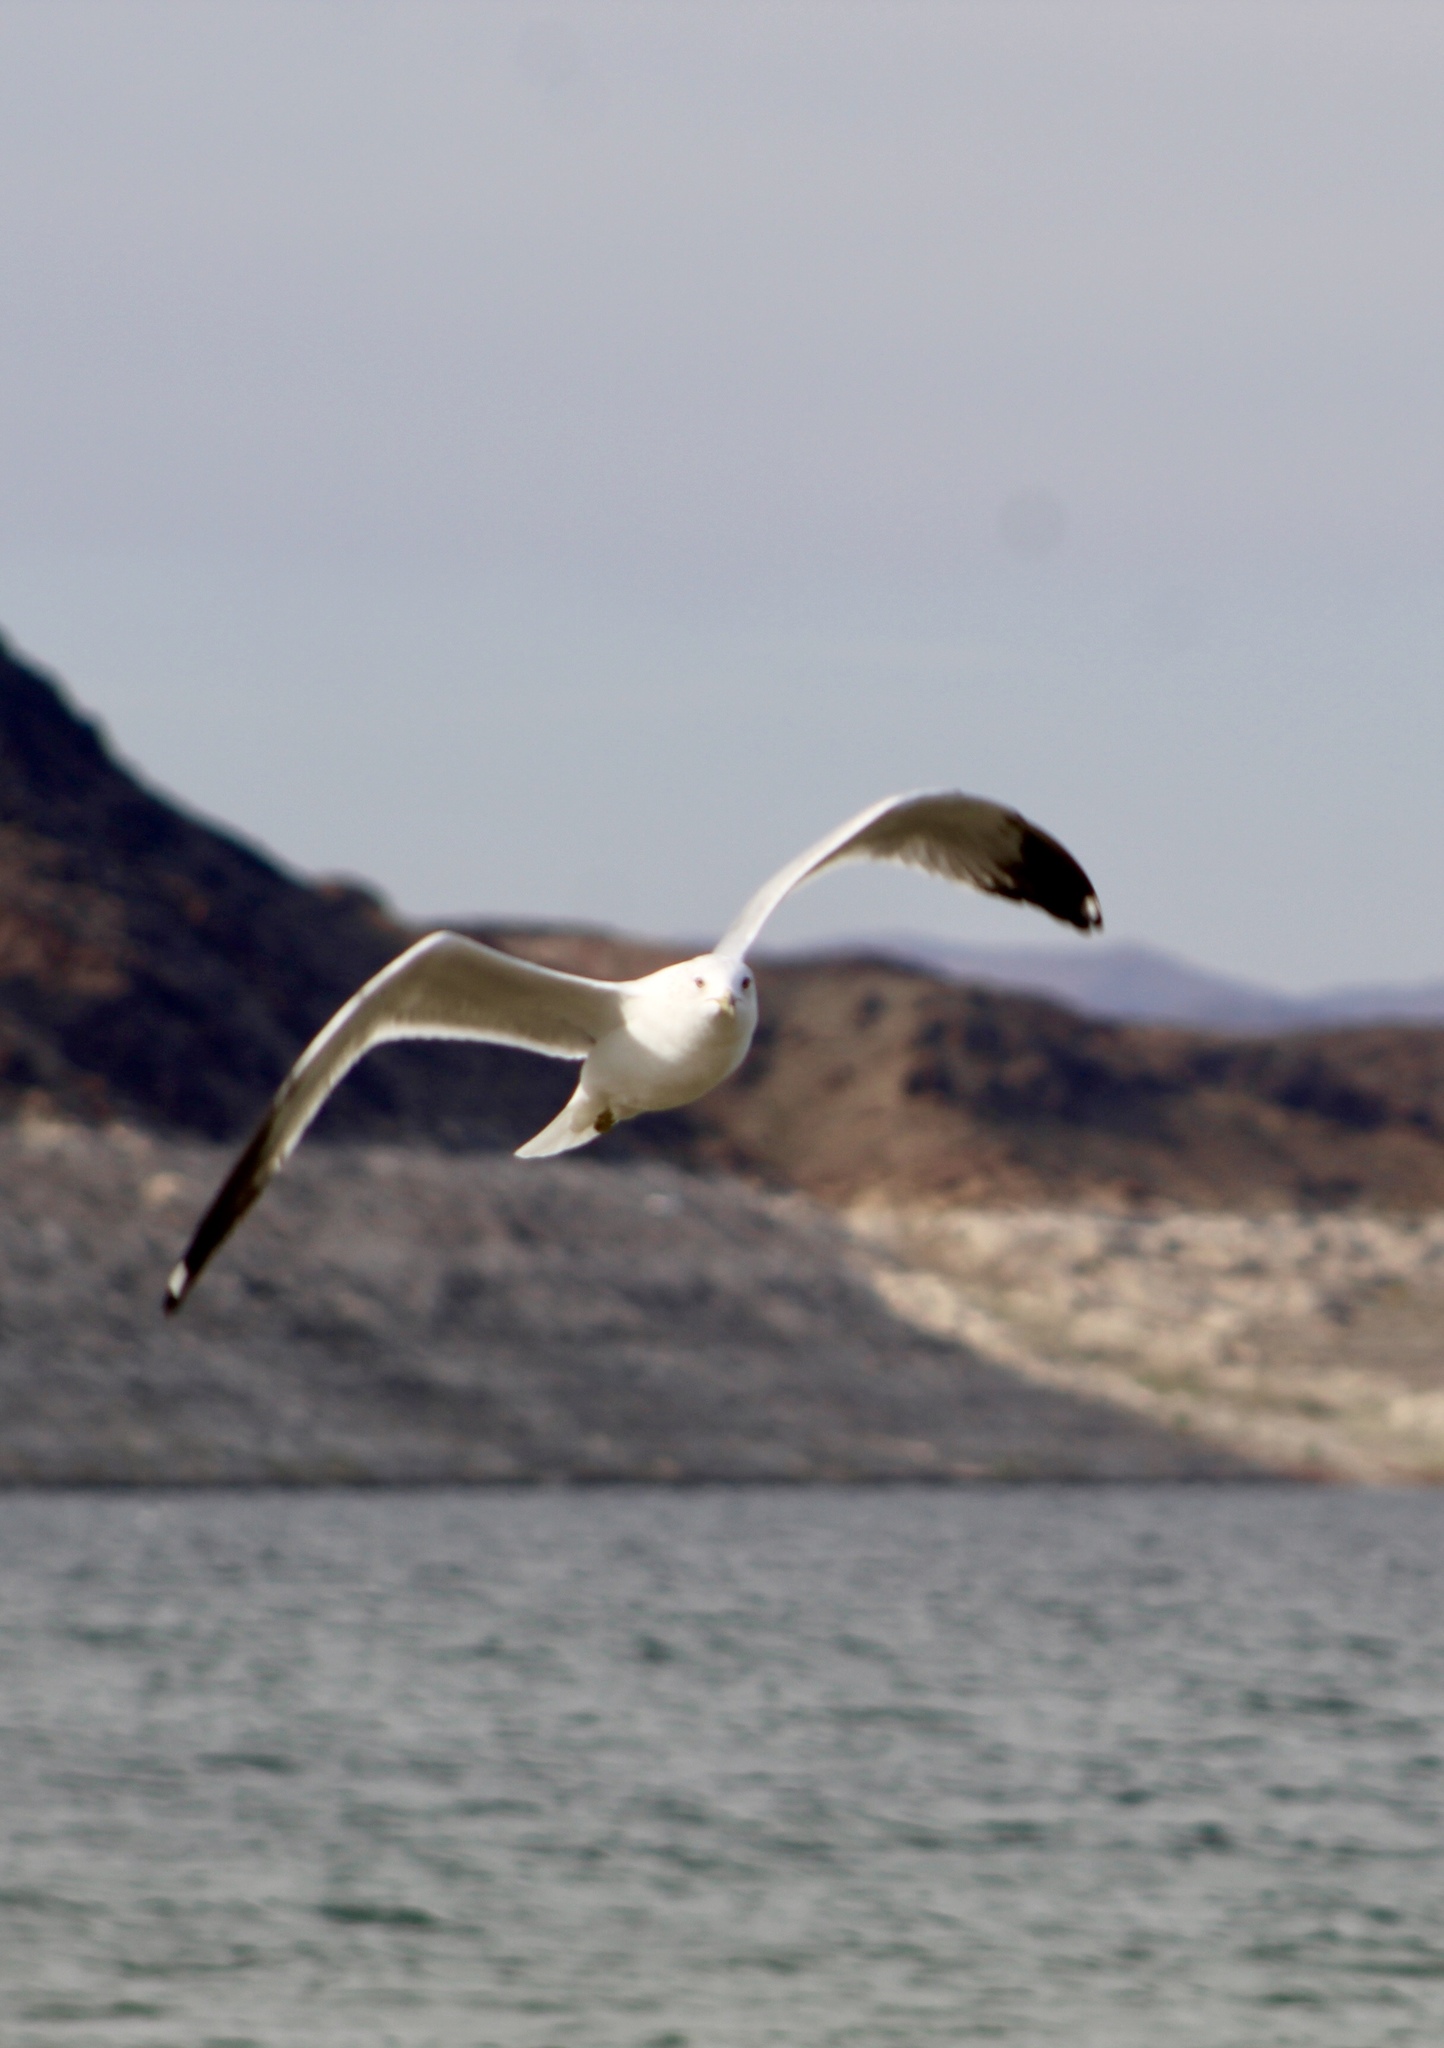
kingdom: Animalia
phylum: Chordata
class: Aves
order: Charadriiformes
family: Laridae
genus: Larus
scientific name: Larus delawarensis
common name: Ring-billed gull
